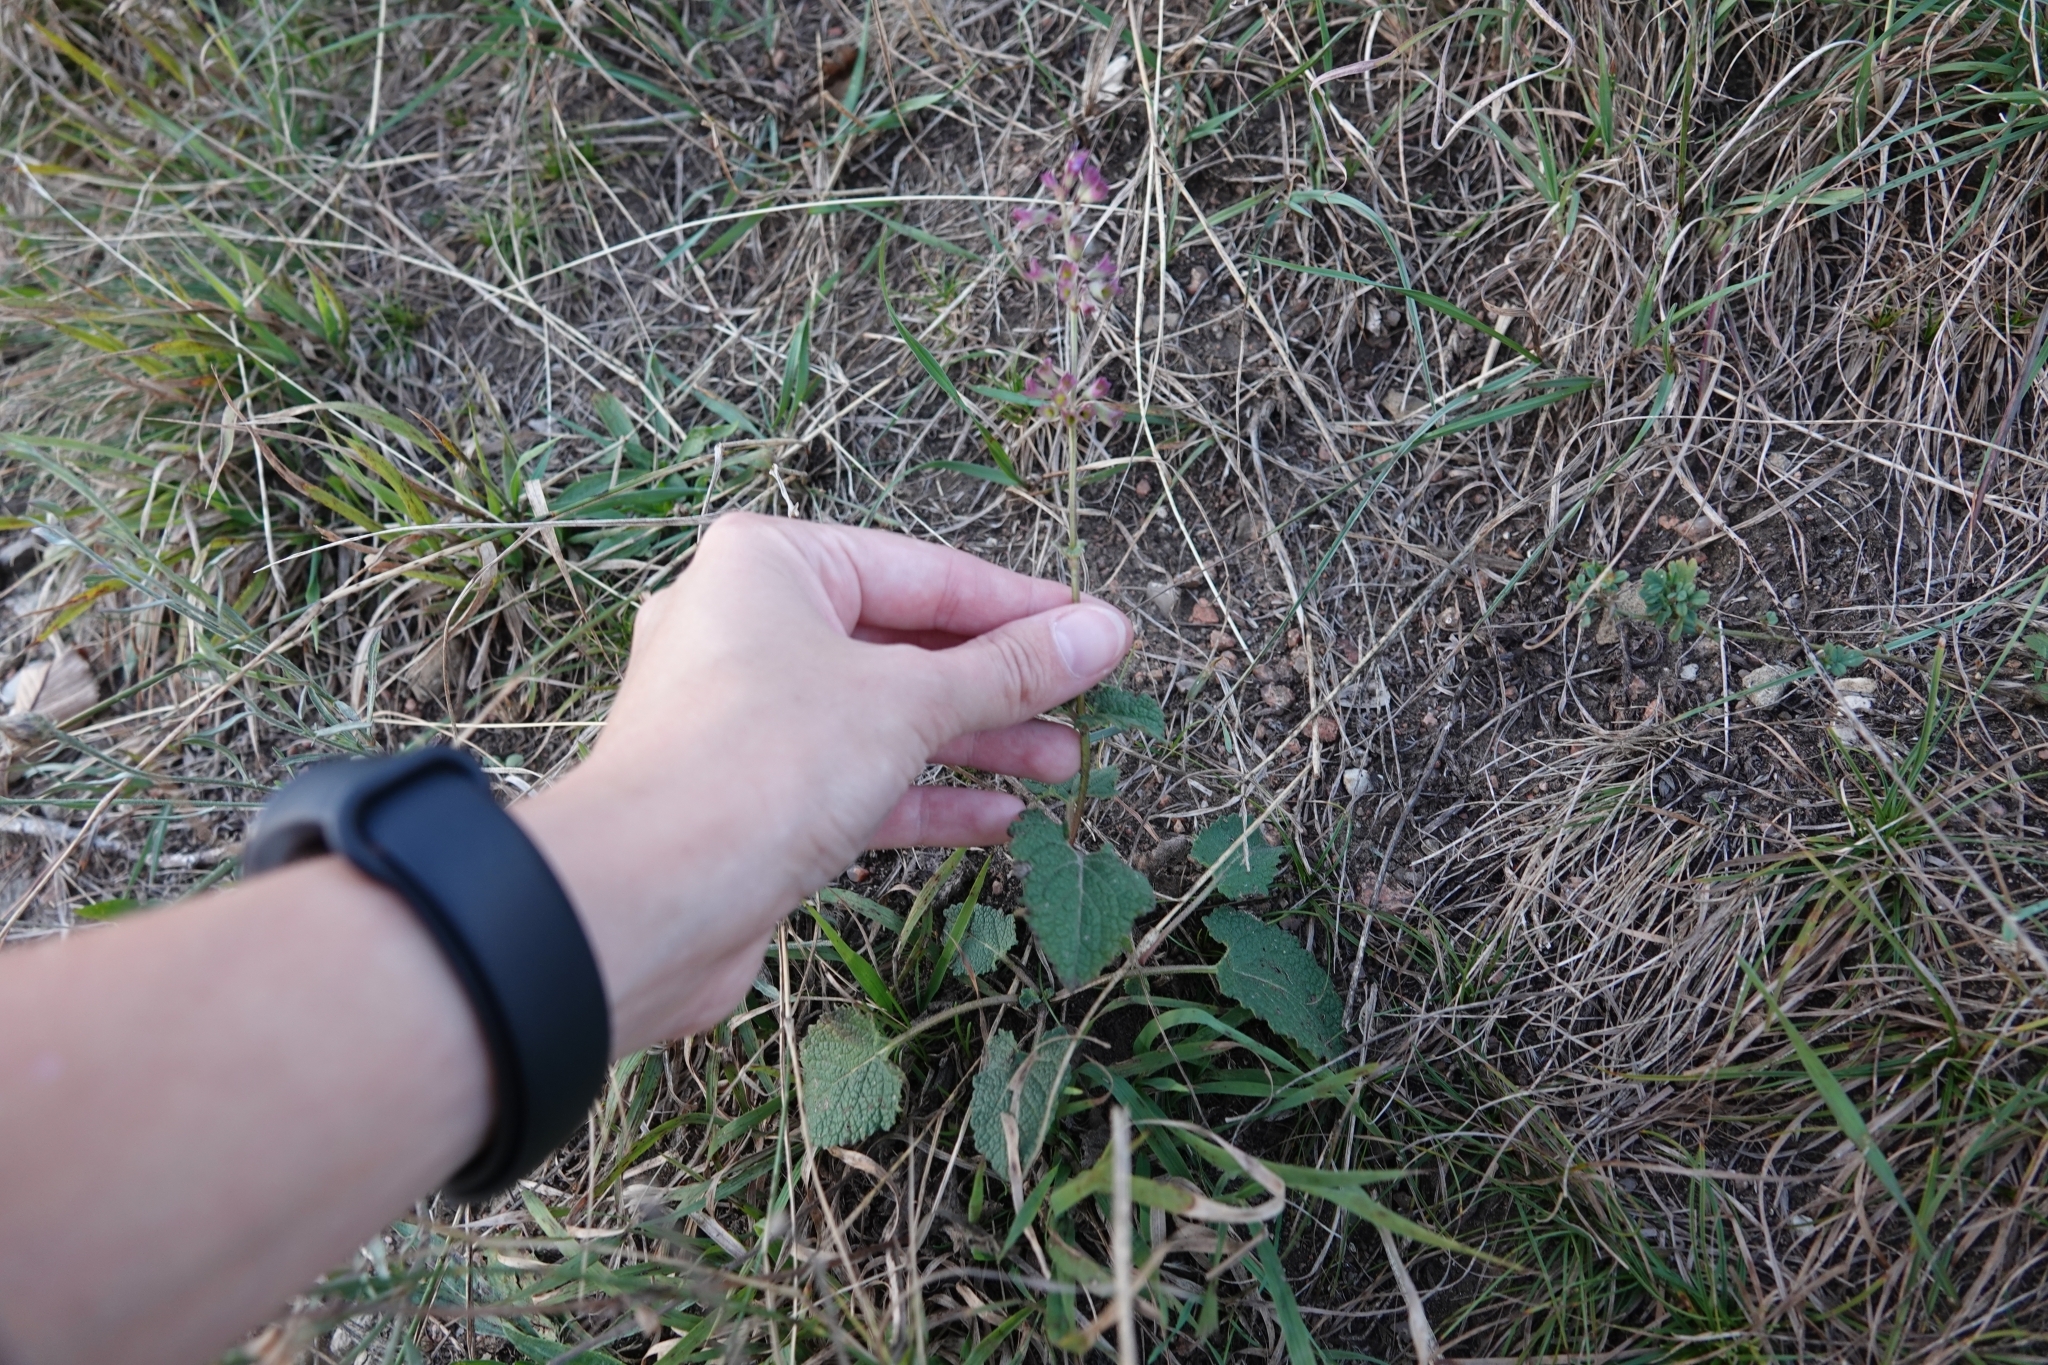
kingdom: Plantae
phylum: Tracheophyta
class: Magnoliopsida
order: Lamiales
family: Lamiaceae
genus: Salvia
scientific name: Salvia verticillata
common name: Whorled clary
